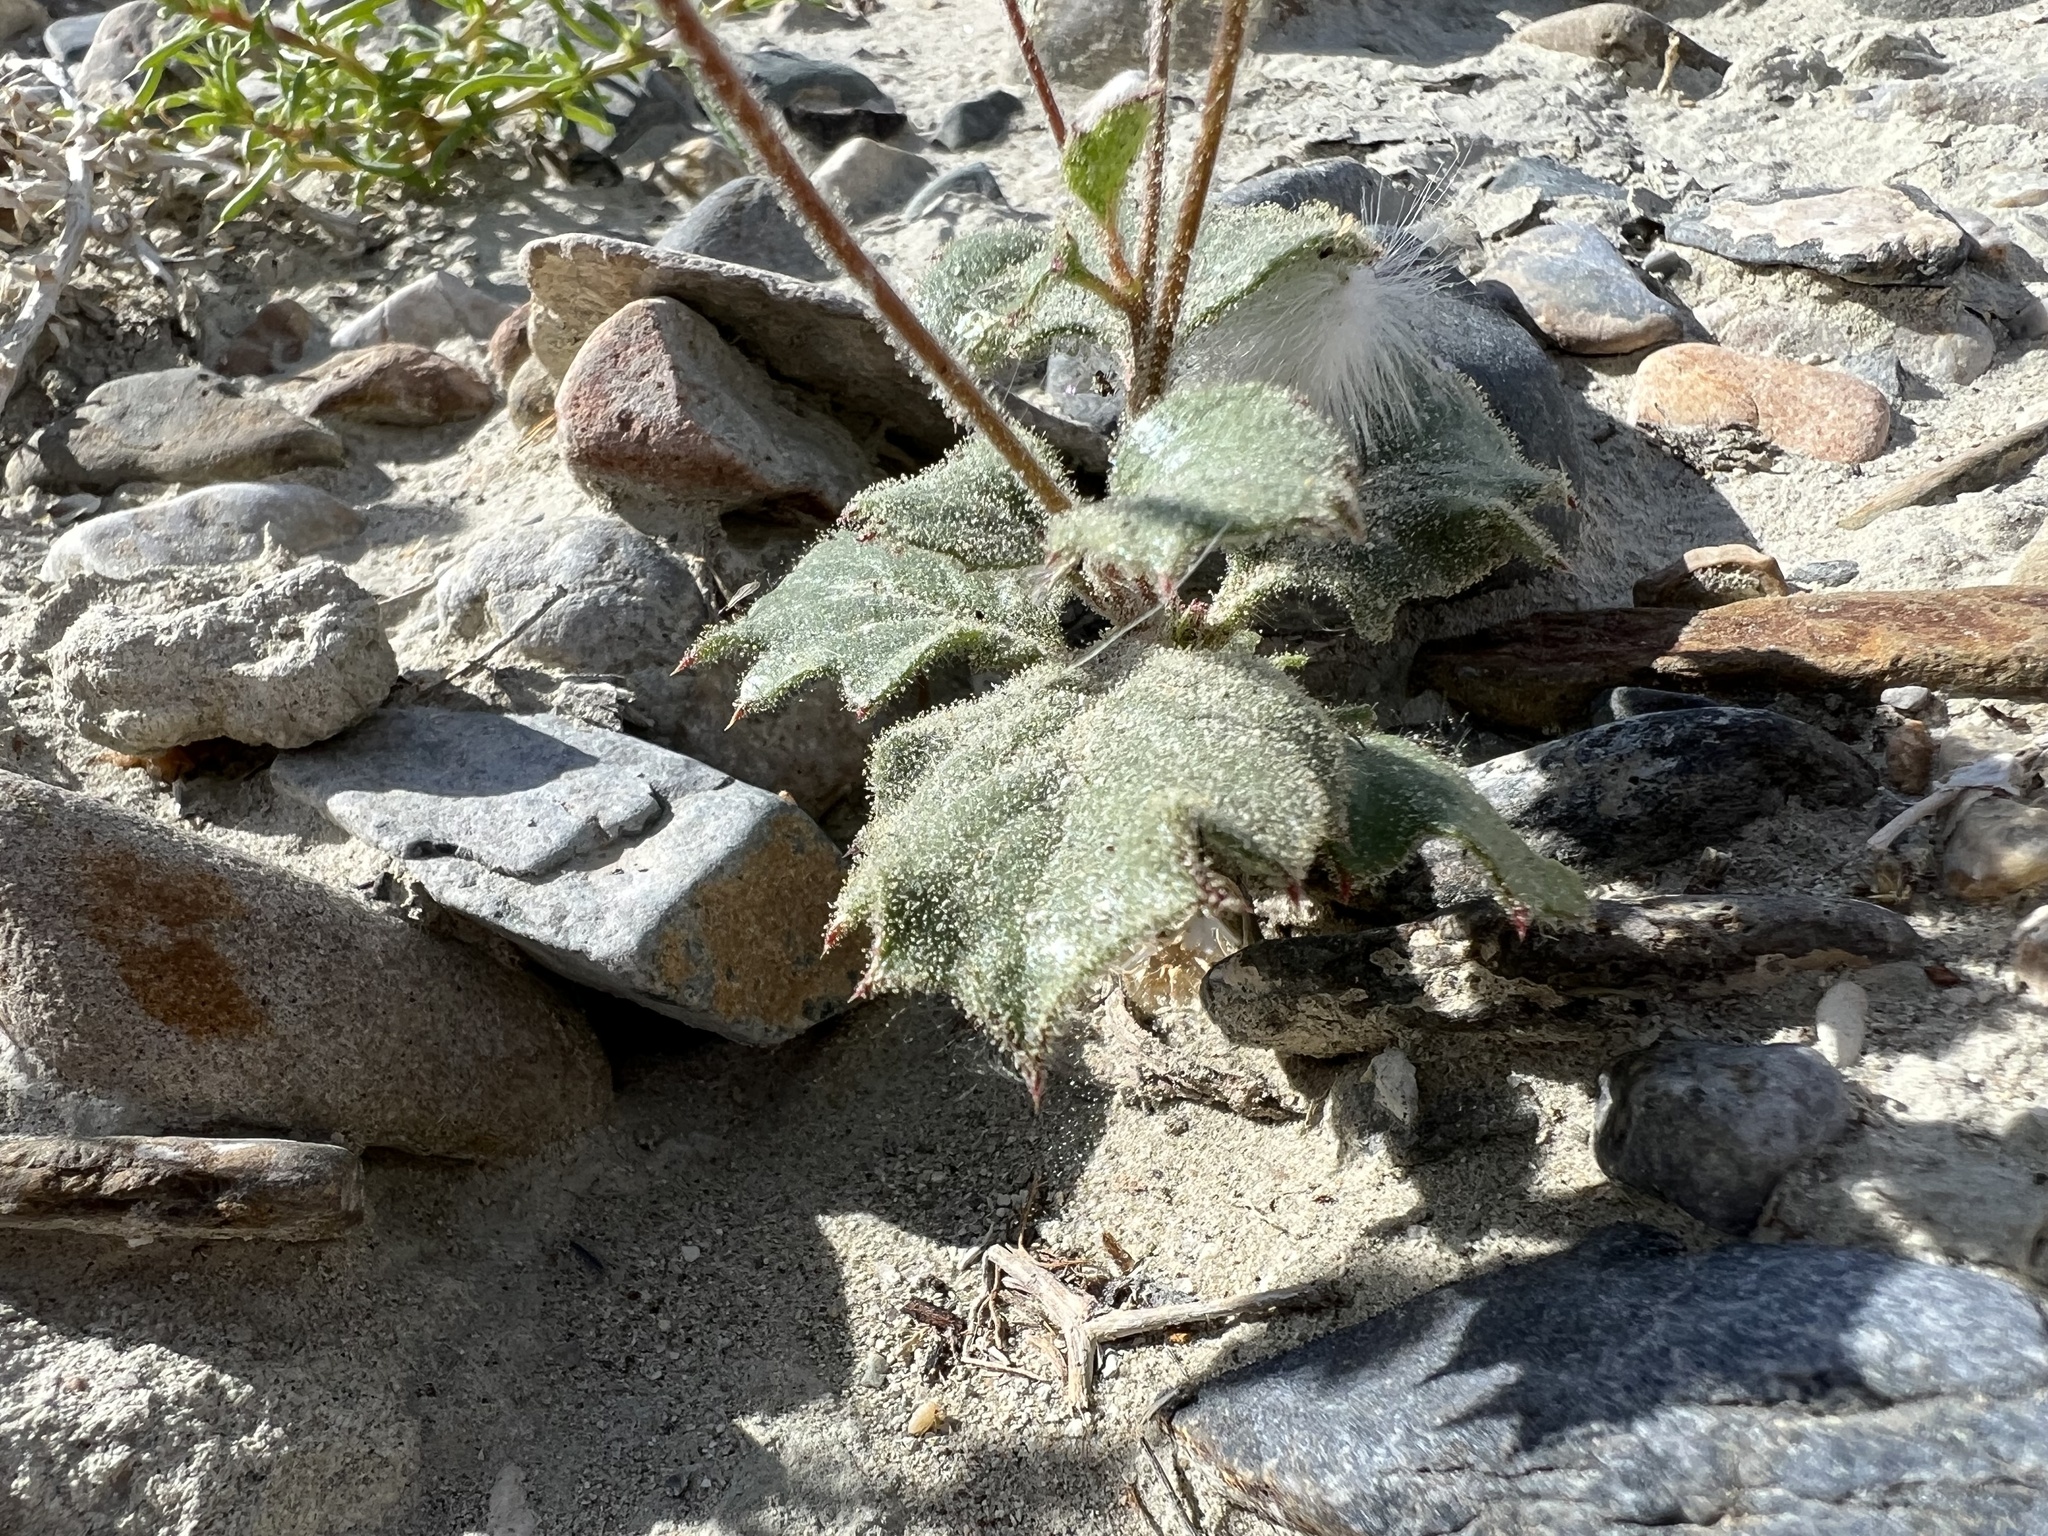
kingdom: Plantae
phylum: Tracheophyta
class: Magnoliopsida
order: Ericales
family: Polemoniaceae
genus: Aliciella
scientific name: Aliciella latifolia
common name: Broad-leaf gilia
